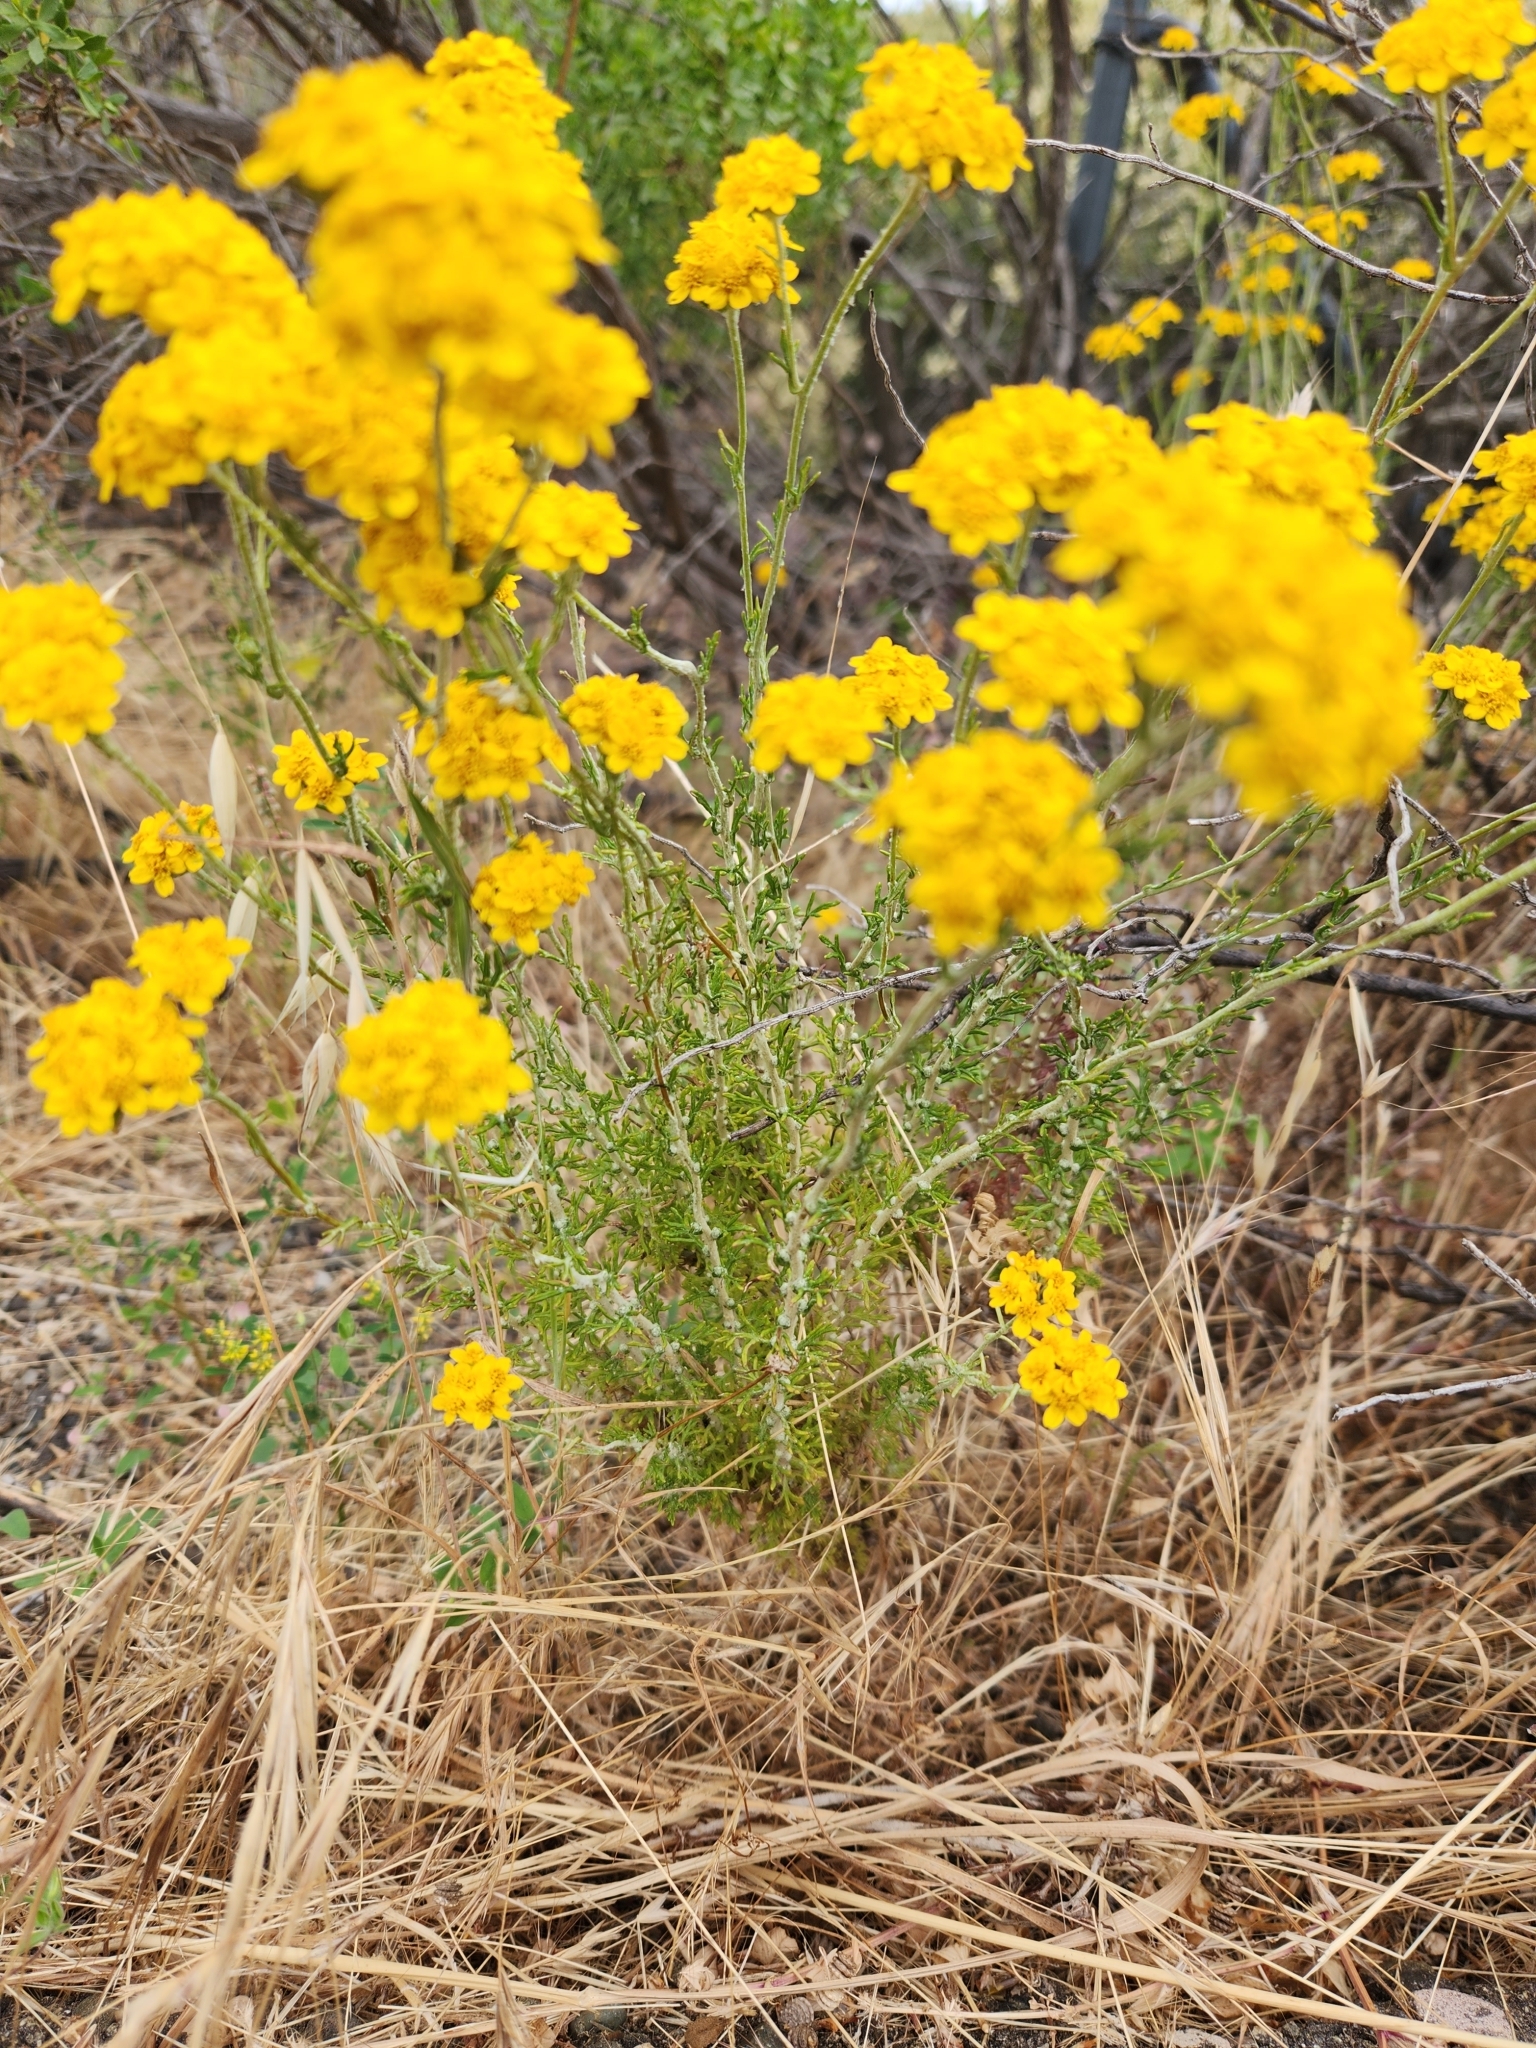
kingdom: Plantae
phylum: Tracheophyta
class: Magnoliopsida
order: Asterales
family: Asteraceae
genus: Eriophyllum
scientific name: Eriophyllum confertiflorum
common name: Golden-yarrow
